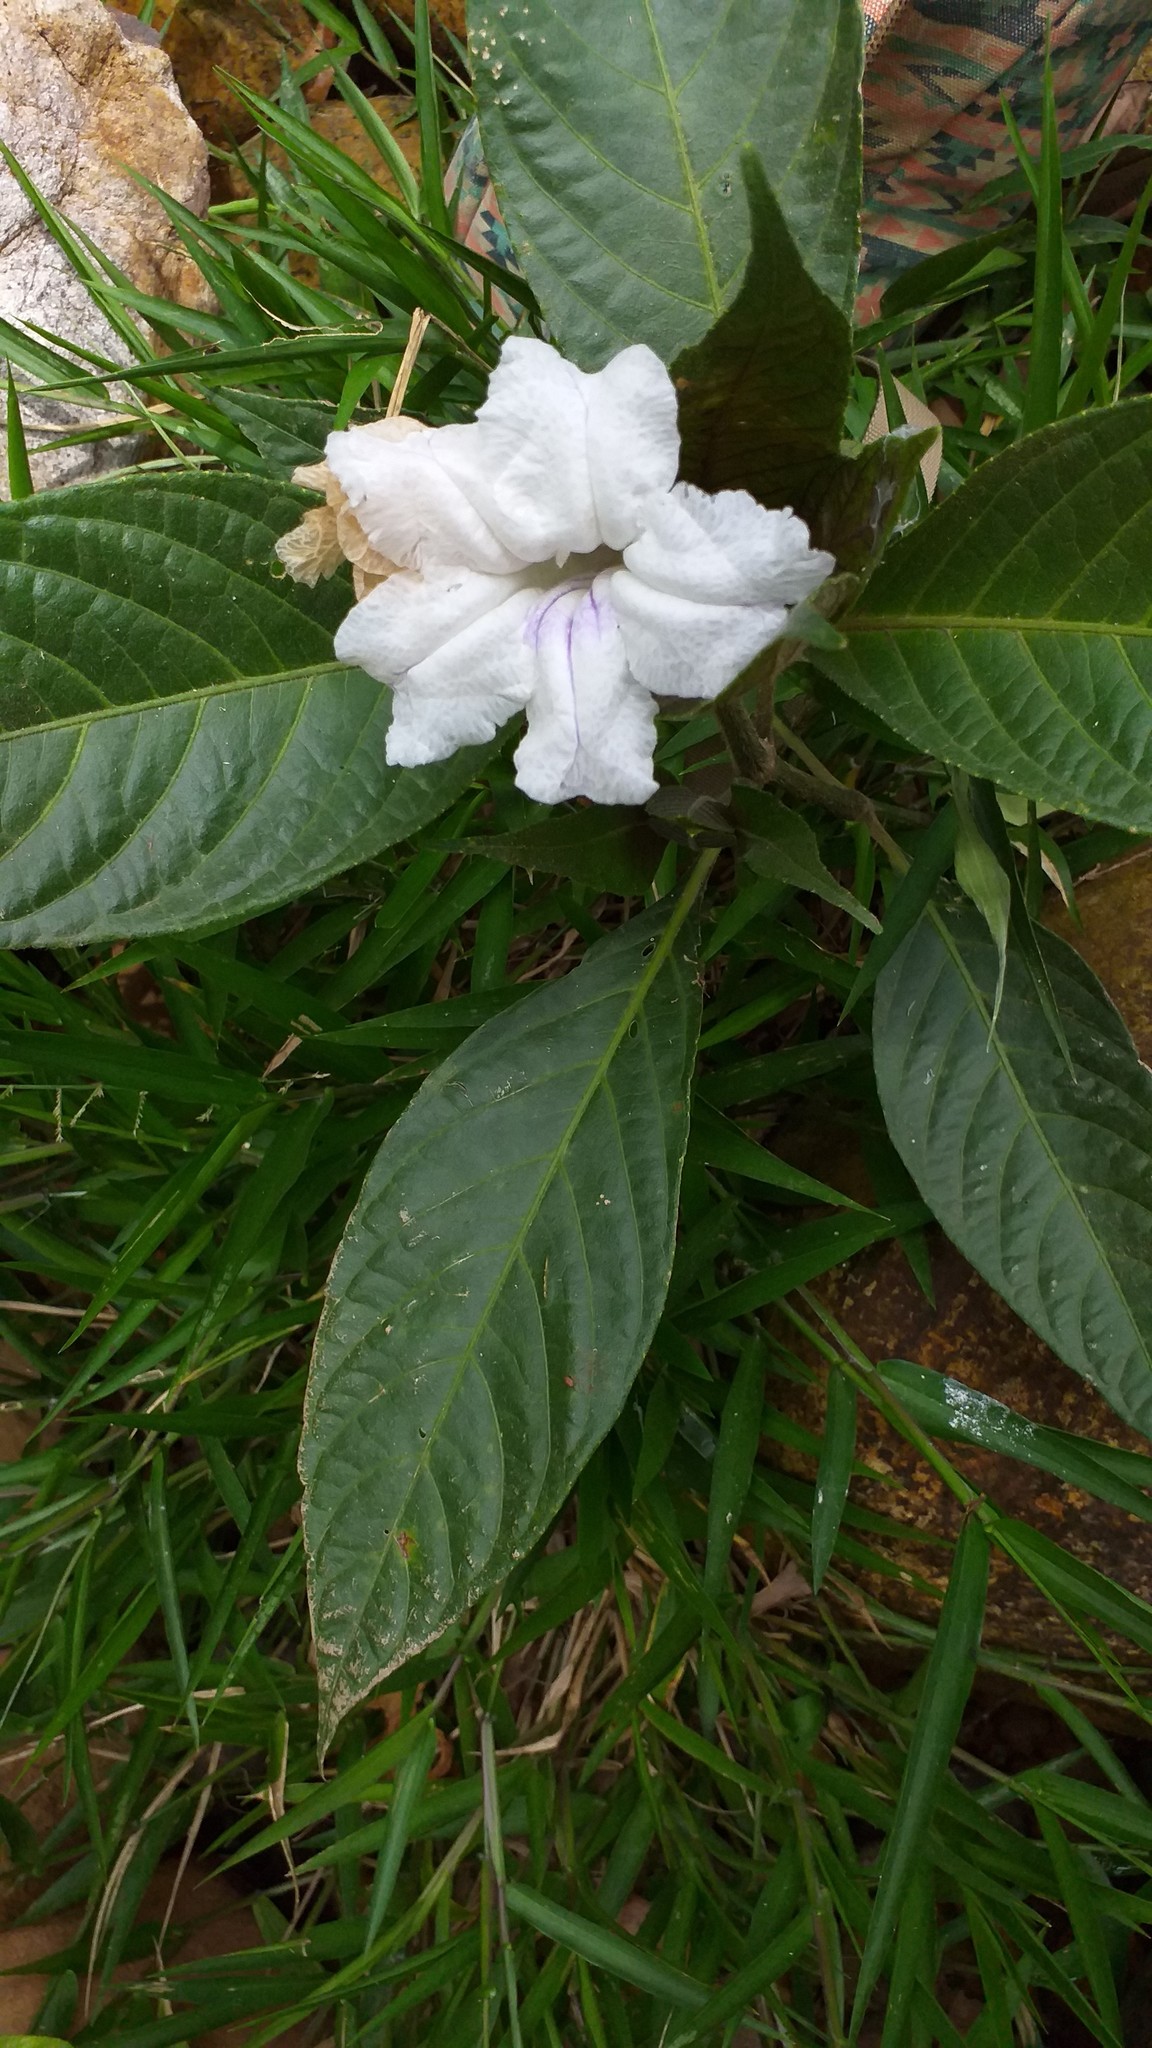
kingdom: Plantae
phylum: Tracheophyta
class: Magnoliopsida
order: Lamiales
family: Acanthaceae
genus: Ruellia
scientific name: Ruellia tubiflora
